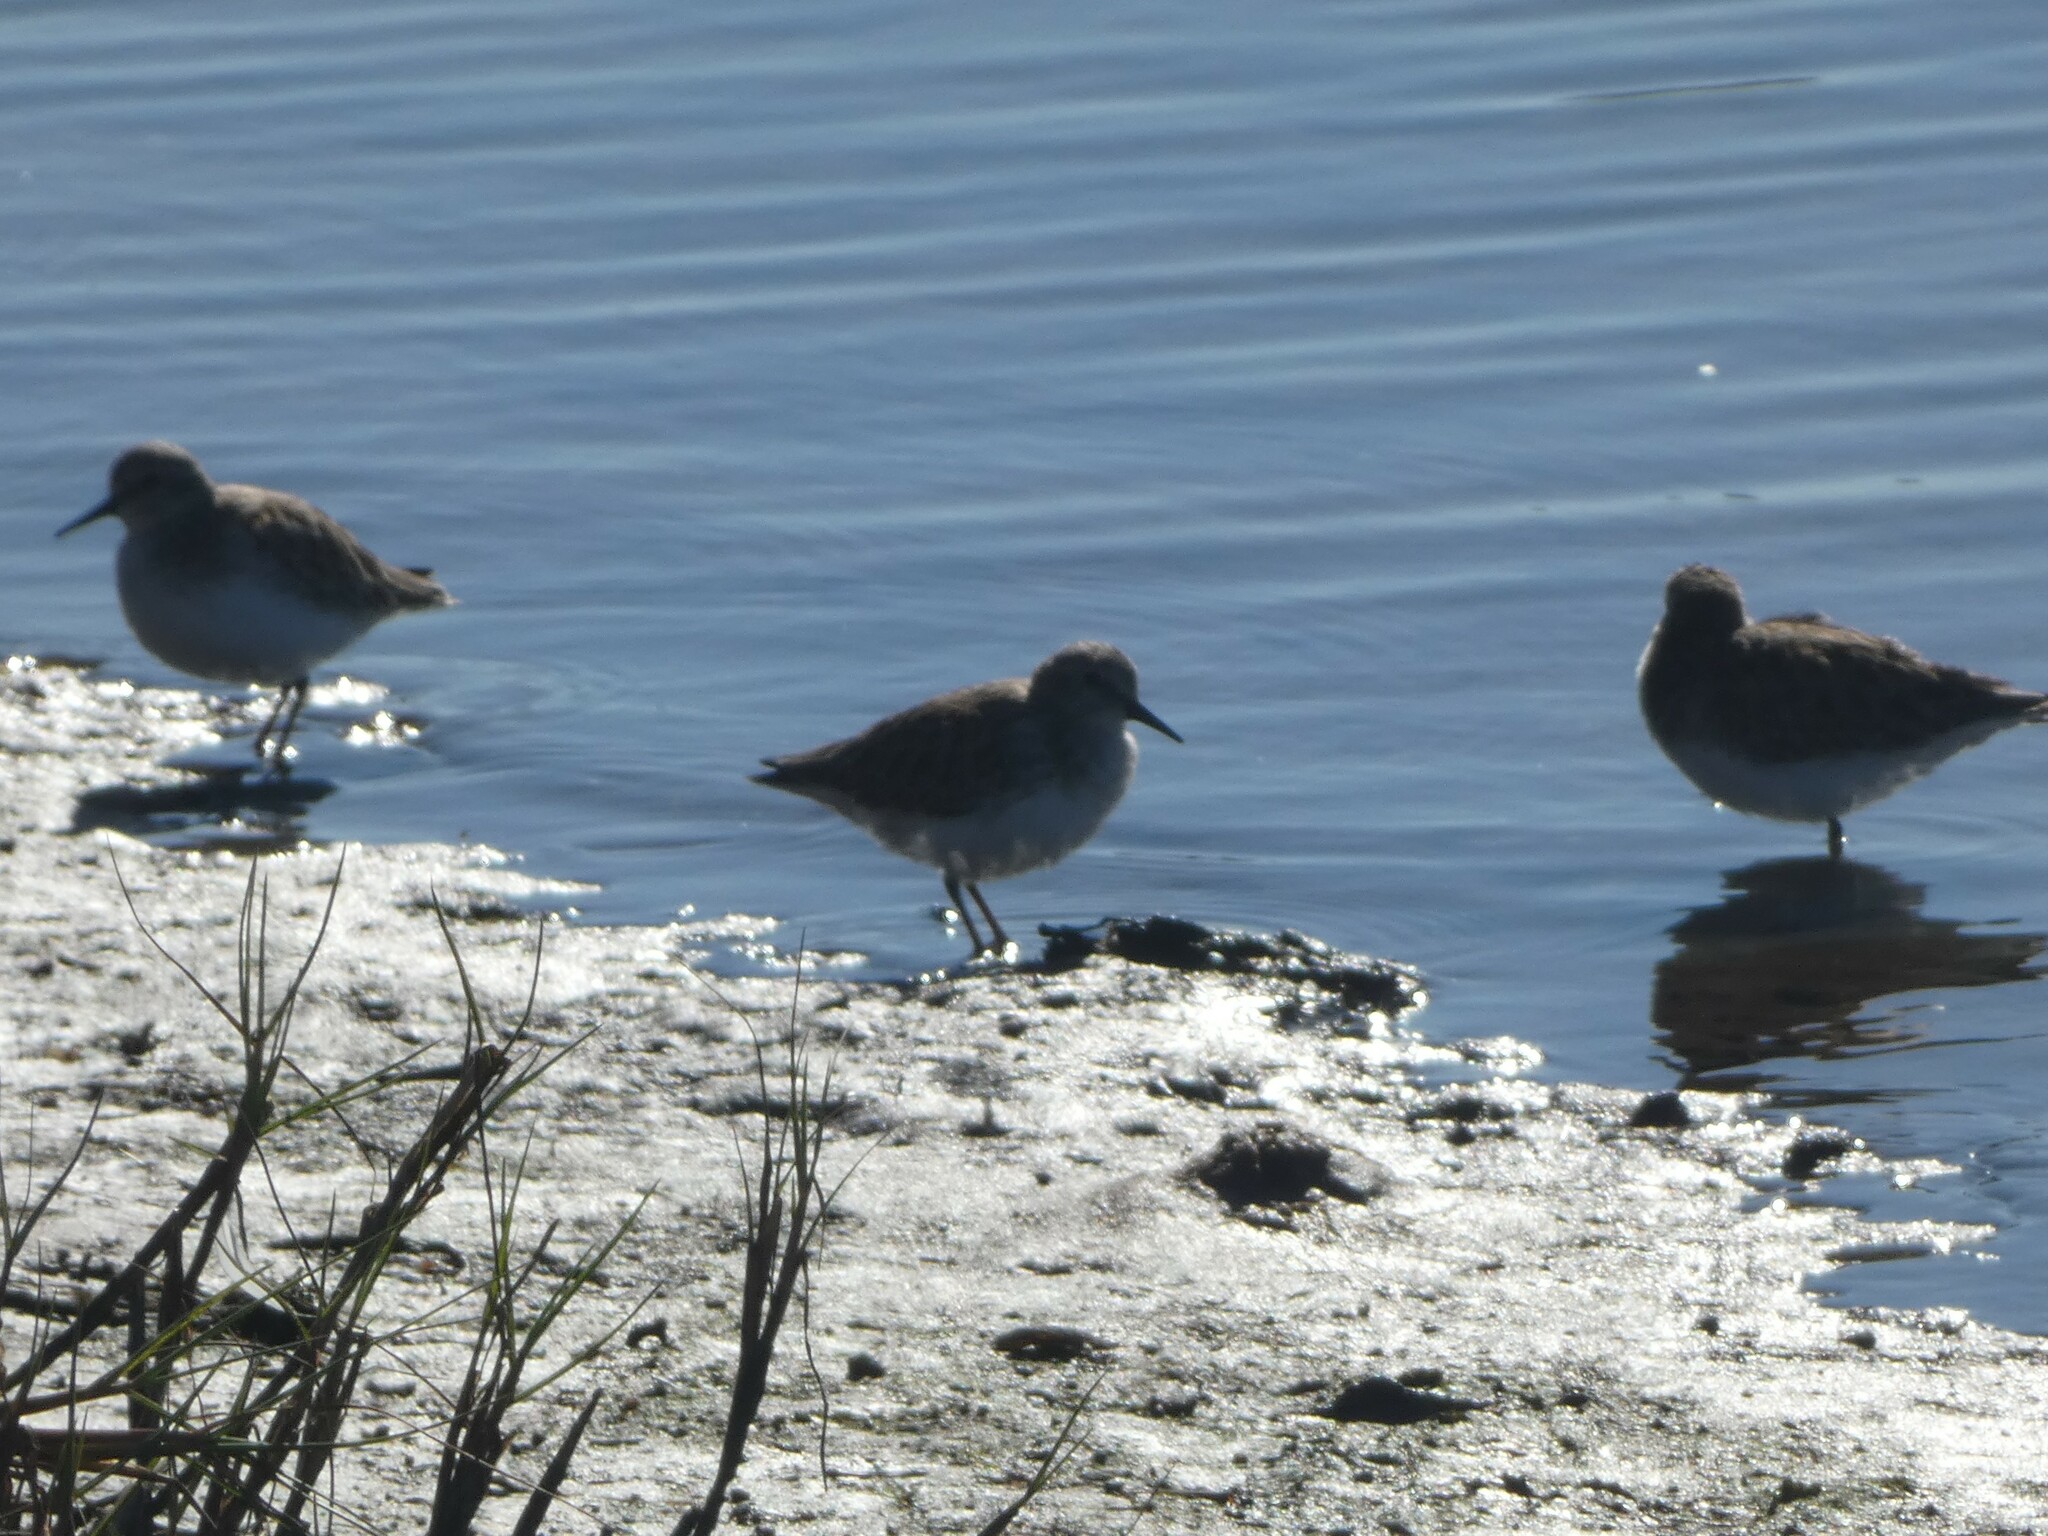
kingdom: Animalia
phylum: Chordata
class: Aves
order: Charadriiformes
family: Scolopacidae
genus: Calidris
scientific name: Calidris minutilla
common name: Least sandpiper
